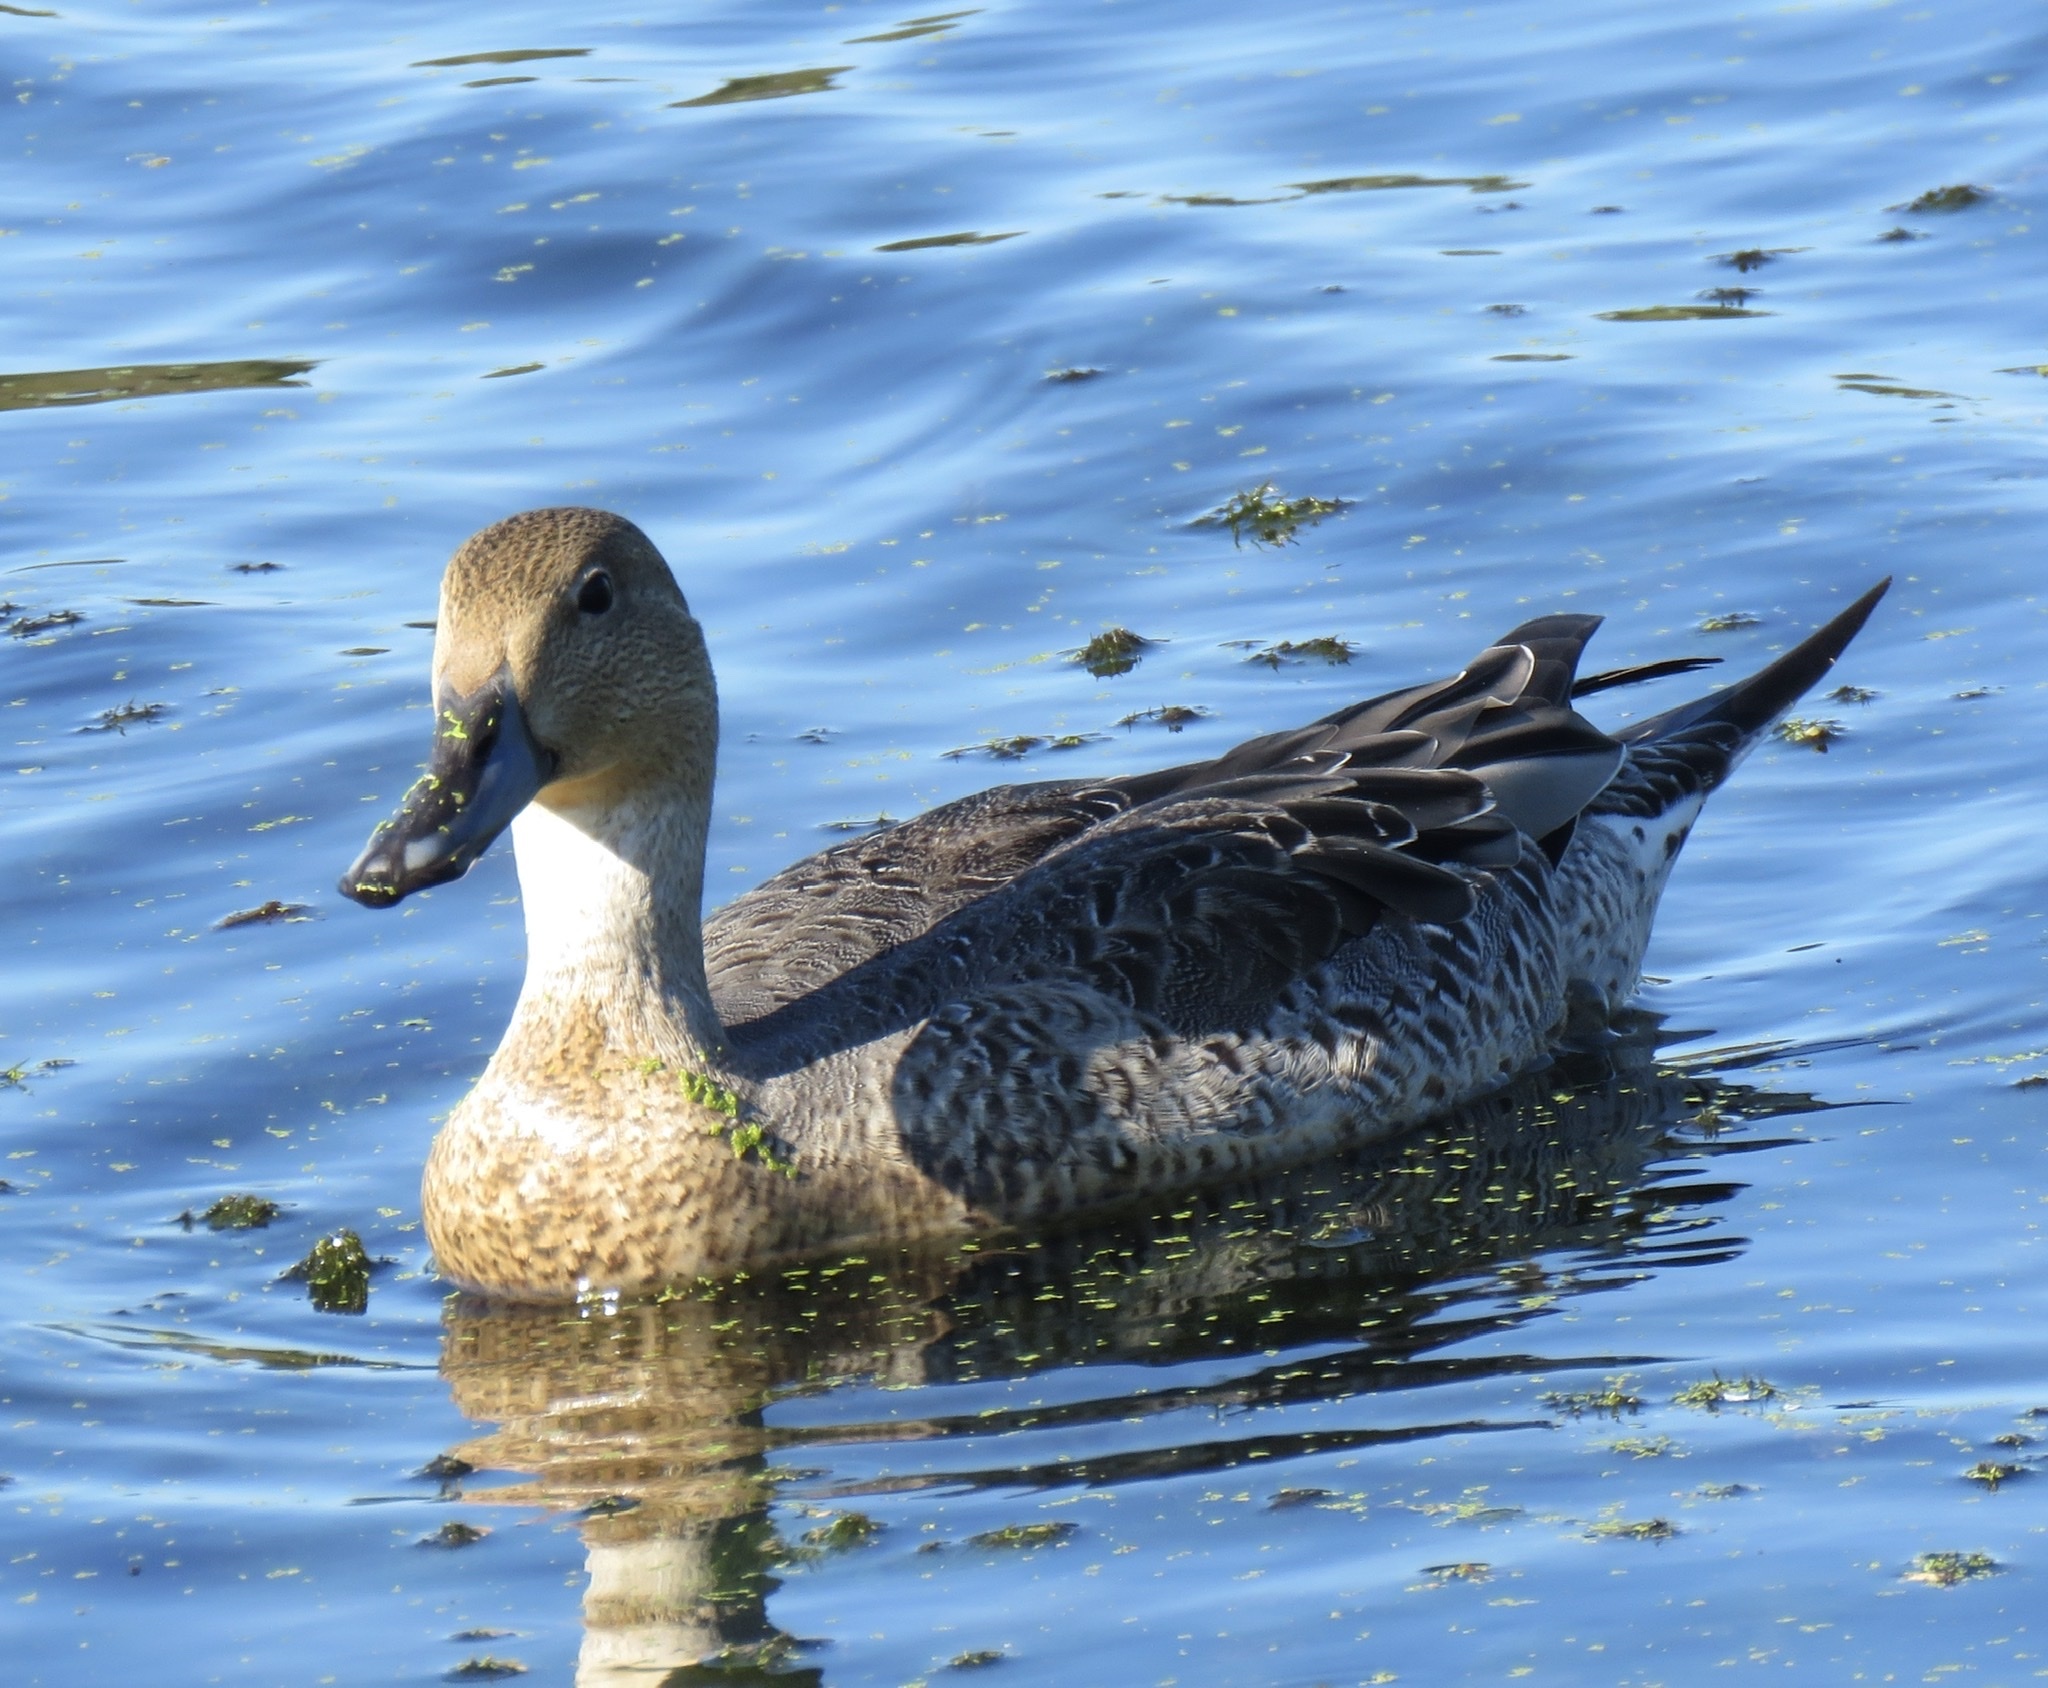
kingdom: Animalia
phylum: Chordata
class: Aves
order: Anseriformes
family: Anatidae
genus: Anas
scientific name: Anas acuta
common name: Northern pintail
